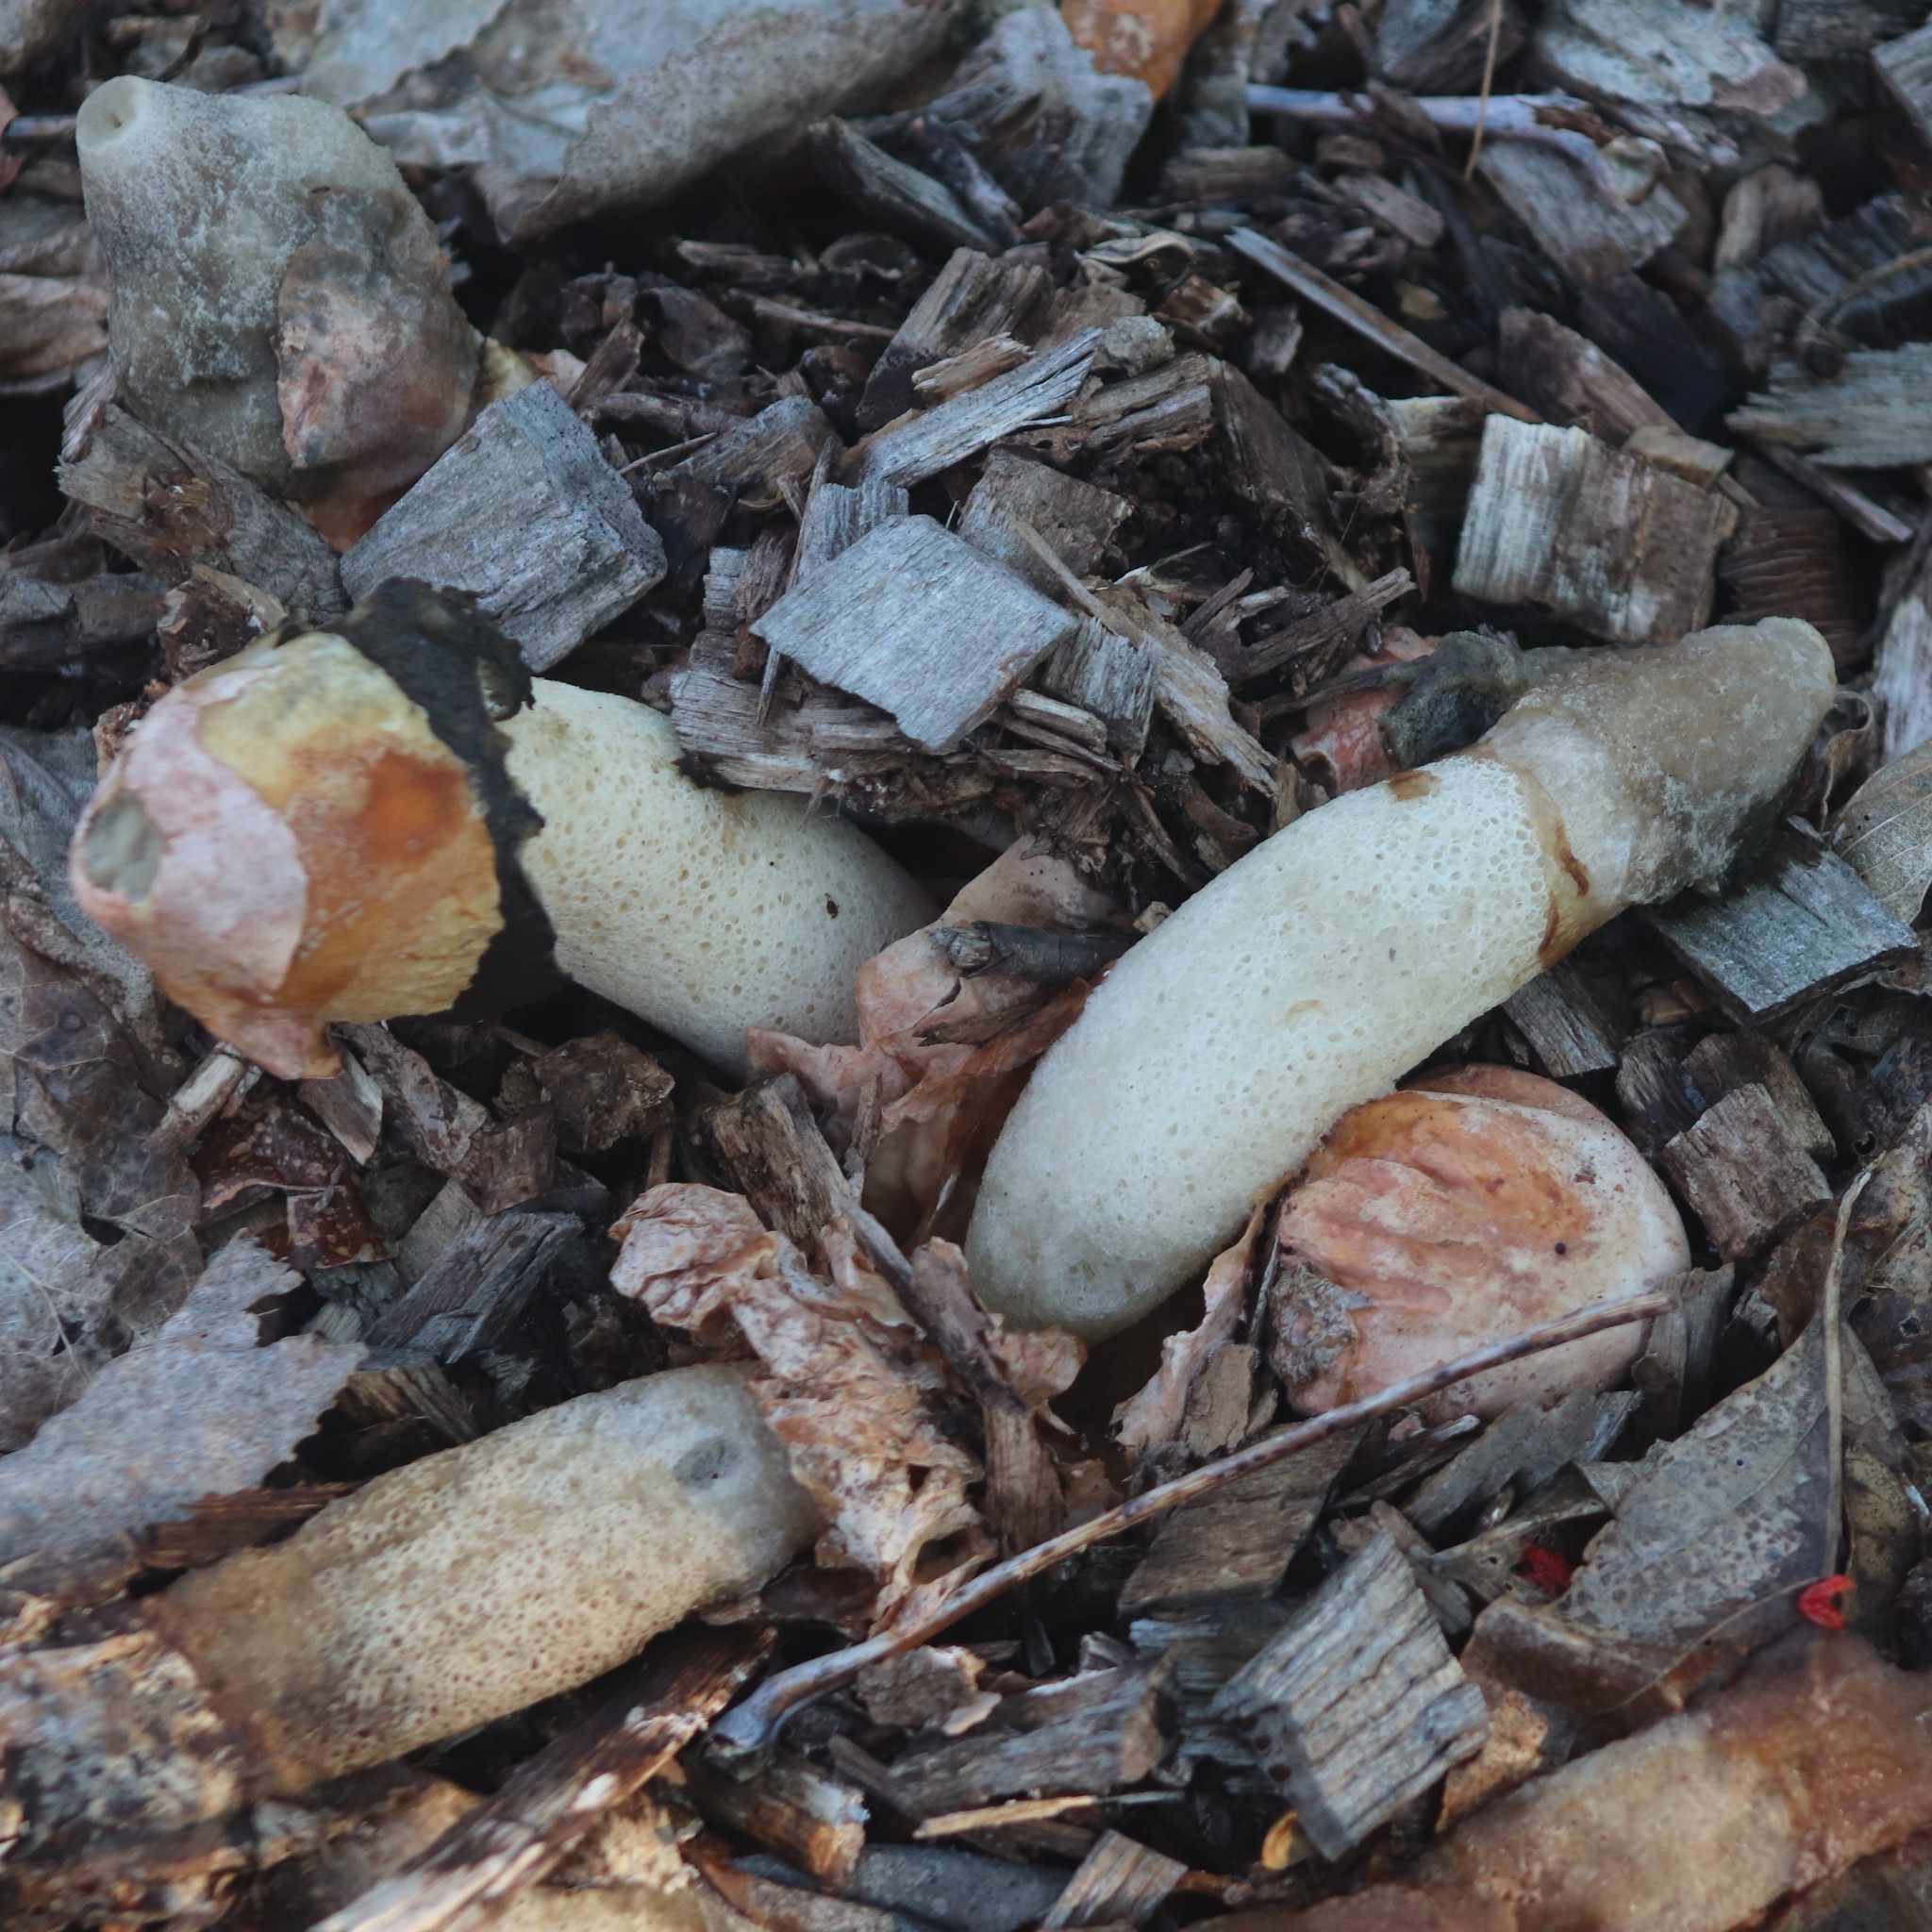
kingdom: Fungi
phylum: Basidiomycota
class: Agaricomycetes
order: Phallales
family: Phallaceae
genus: Phallus
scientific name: Phallus ravenelii
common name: Ravenel's stinkhorn
